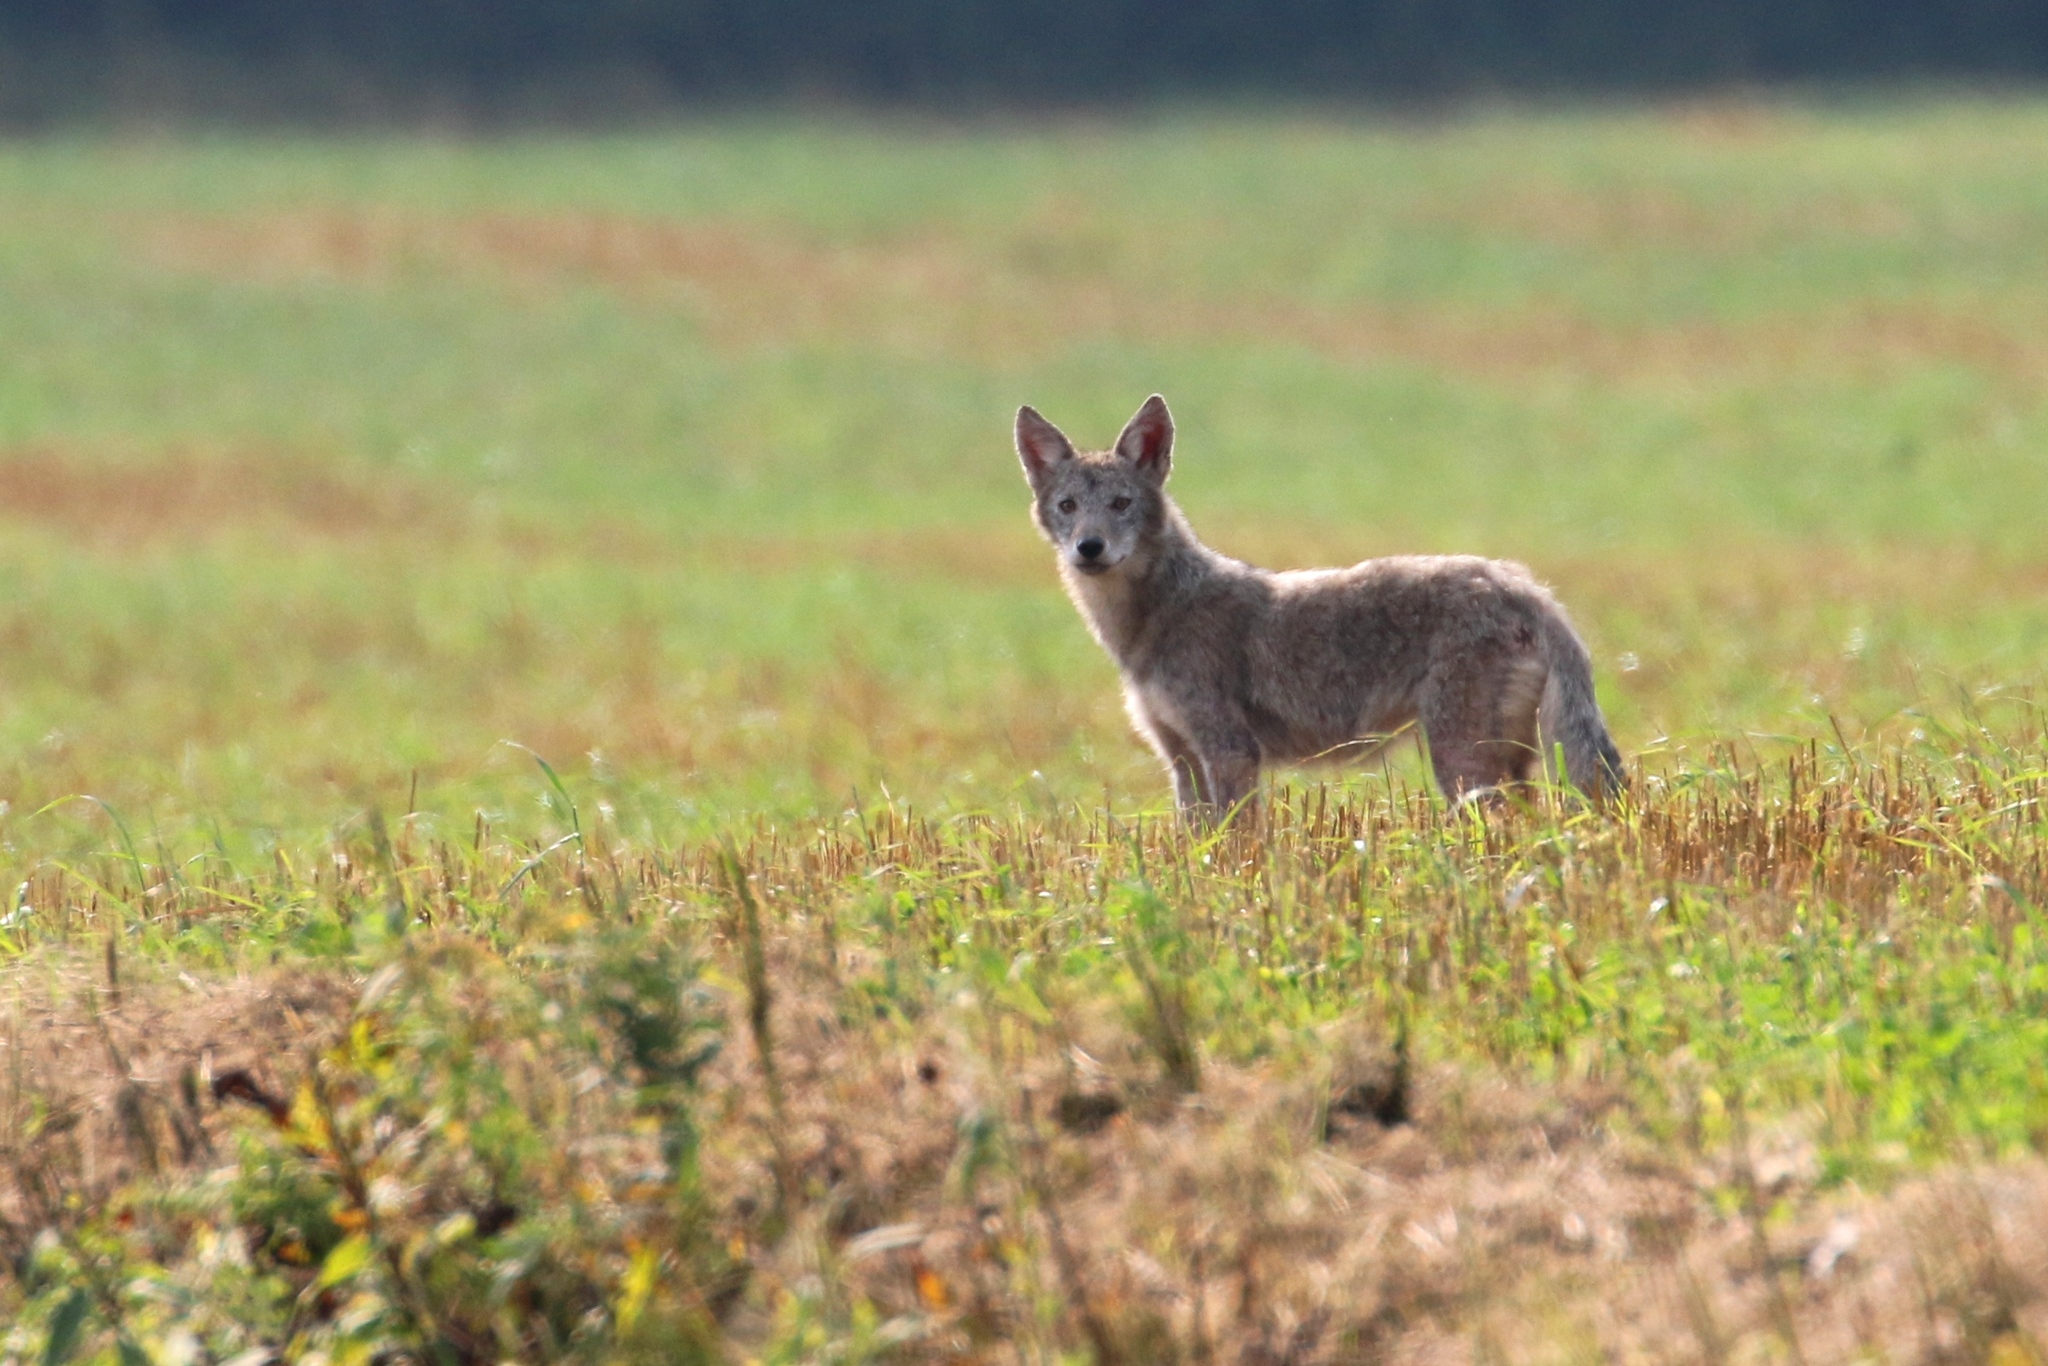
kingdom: Animalia
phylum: Chordata
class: Mammalia
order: Carnivora
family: Canidae
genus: Canis
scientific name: Canis latrans
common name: Coyote
